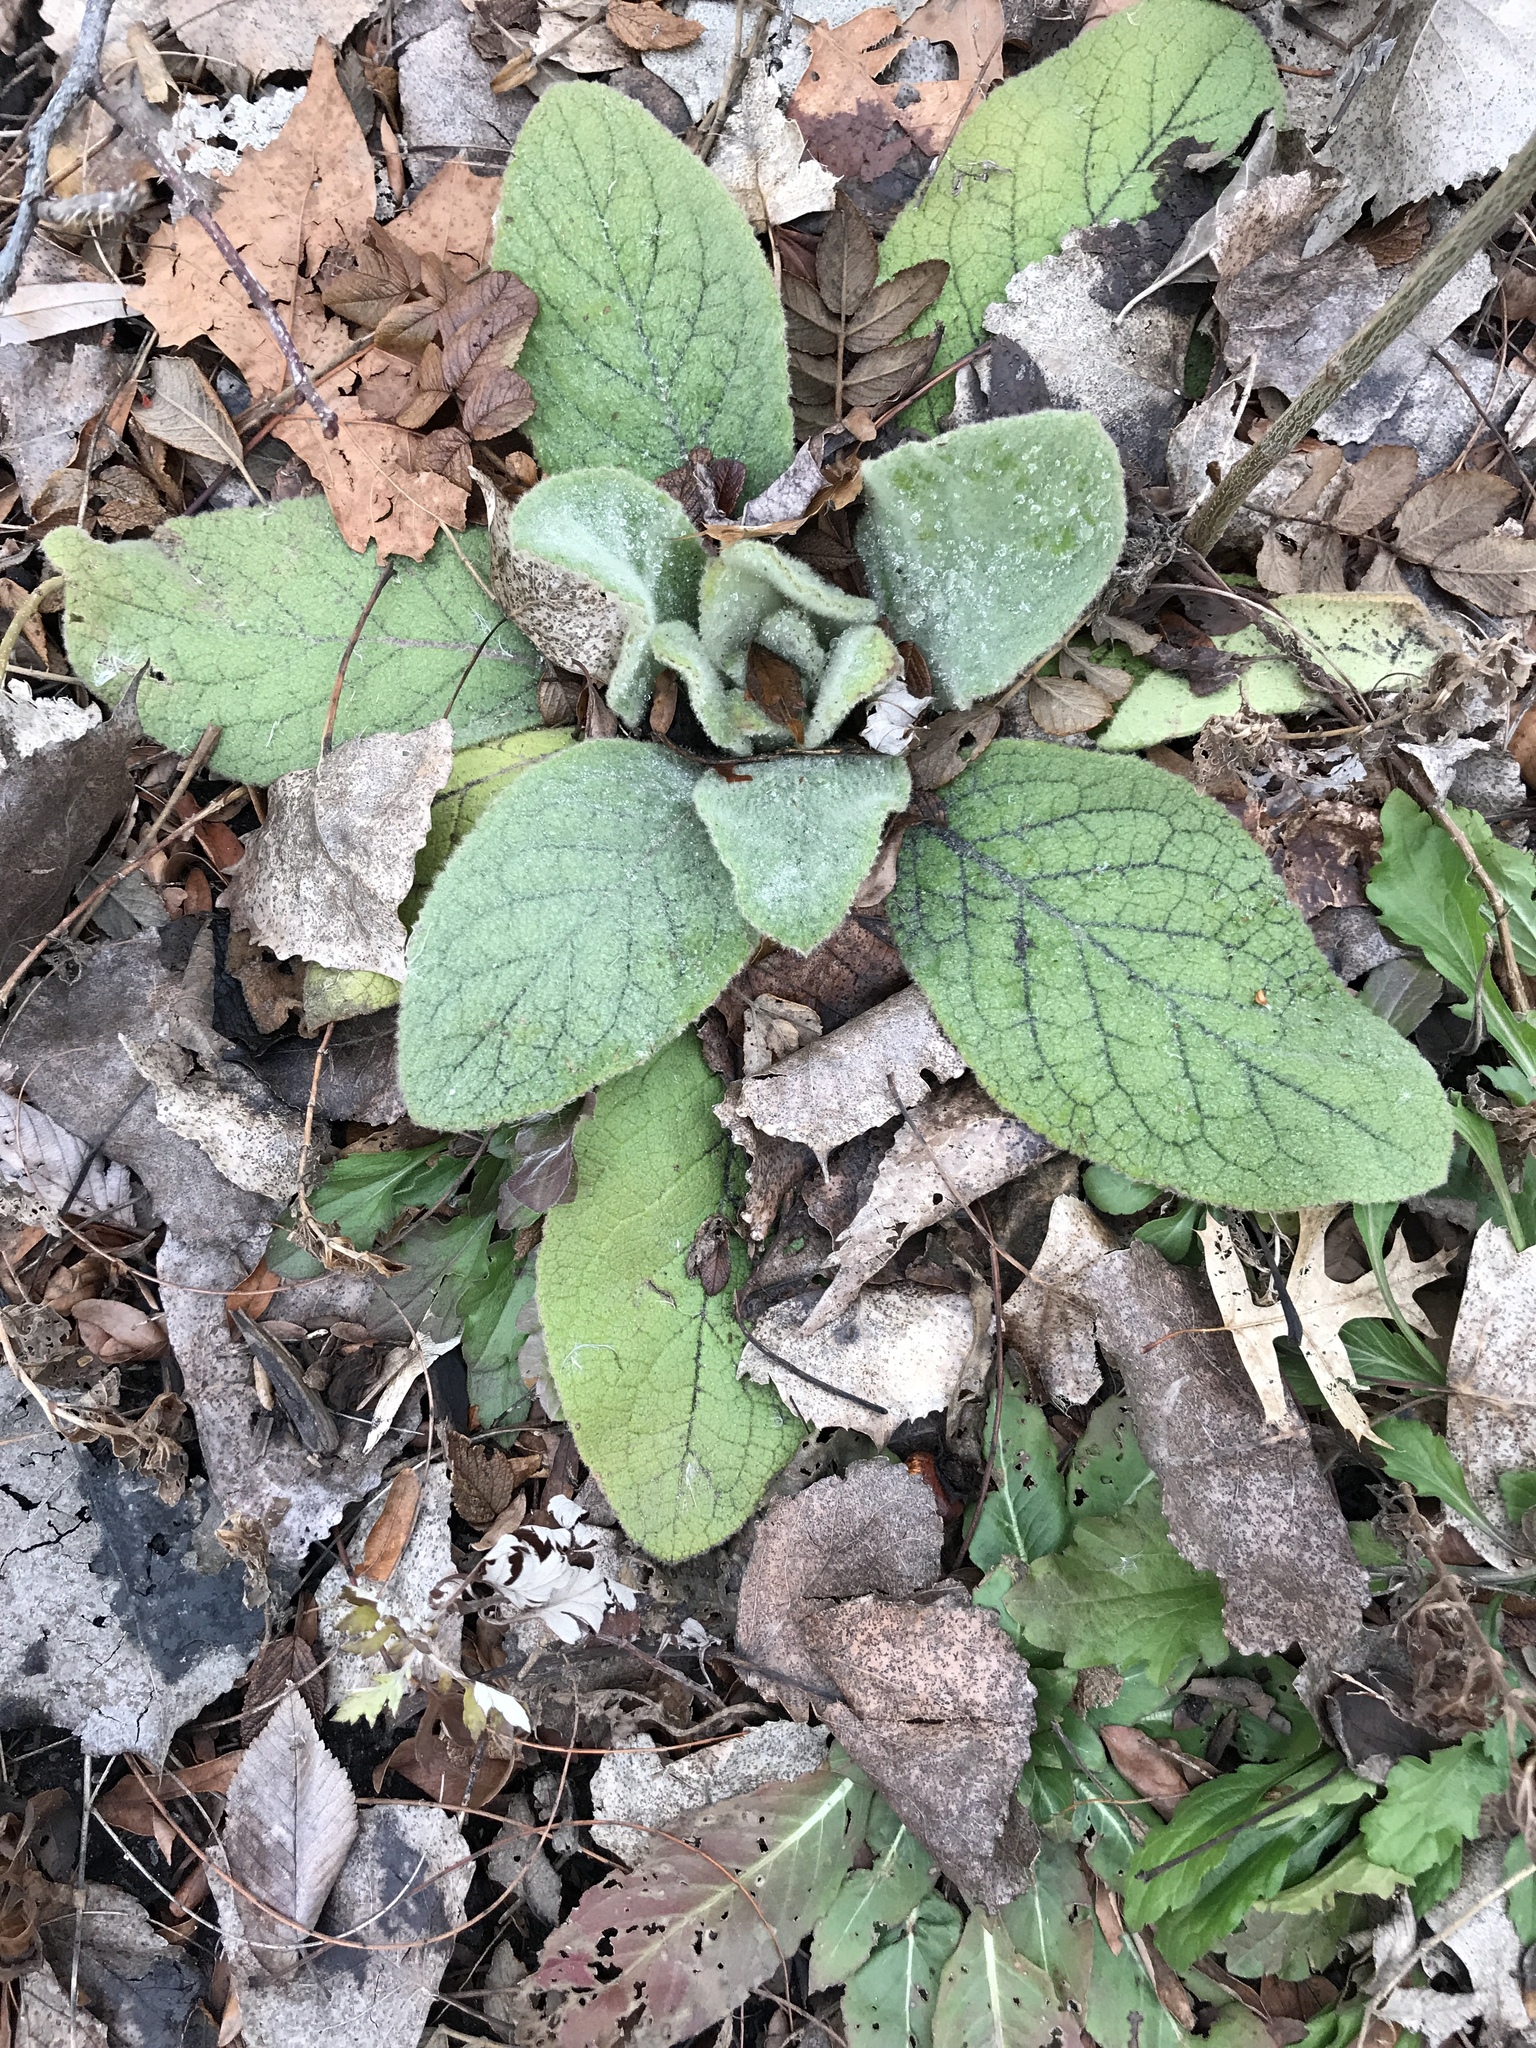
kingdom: Plantae
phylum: Tracheophyta
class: Magnoliopsida
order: Lamiales
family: Scrophulariaceae
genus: Verbascum
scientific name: Verbascum thapsus
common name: Common mullein
